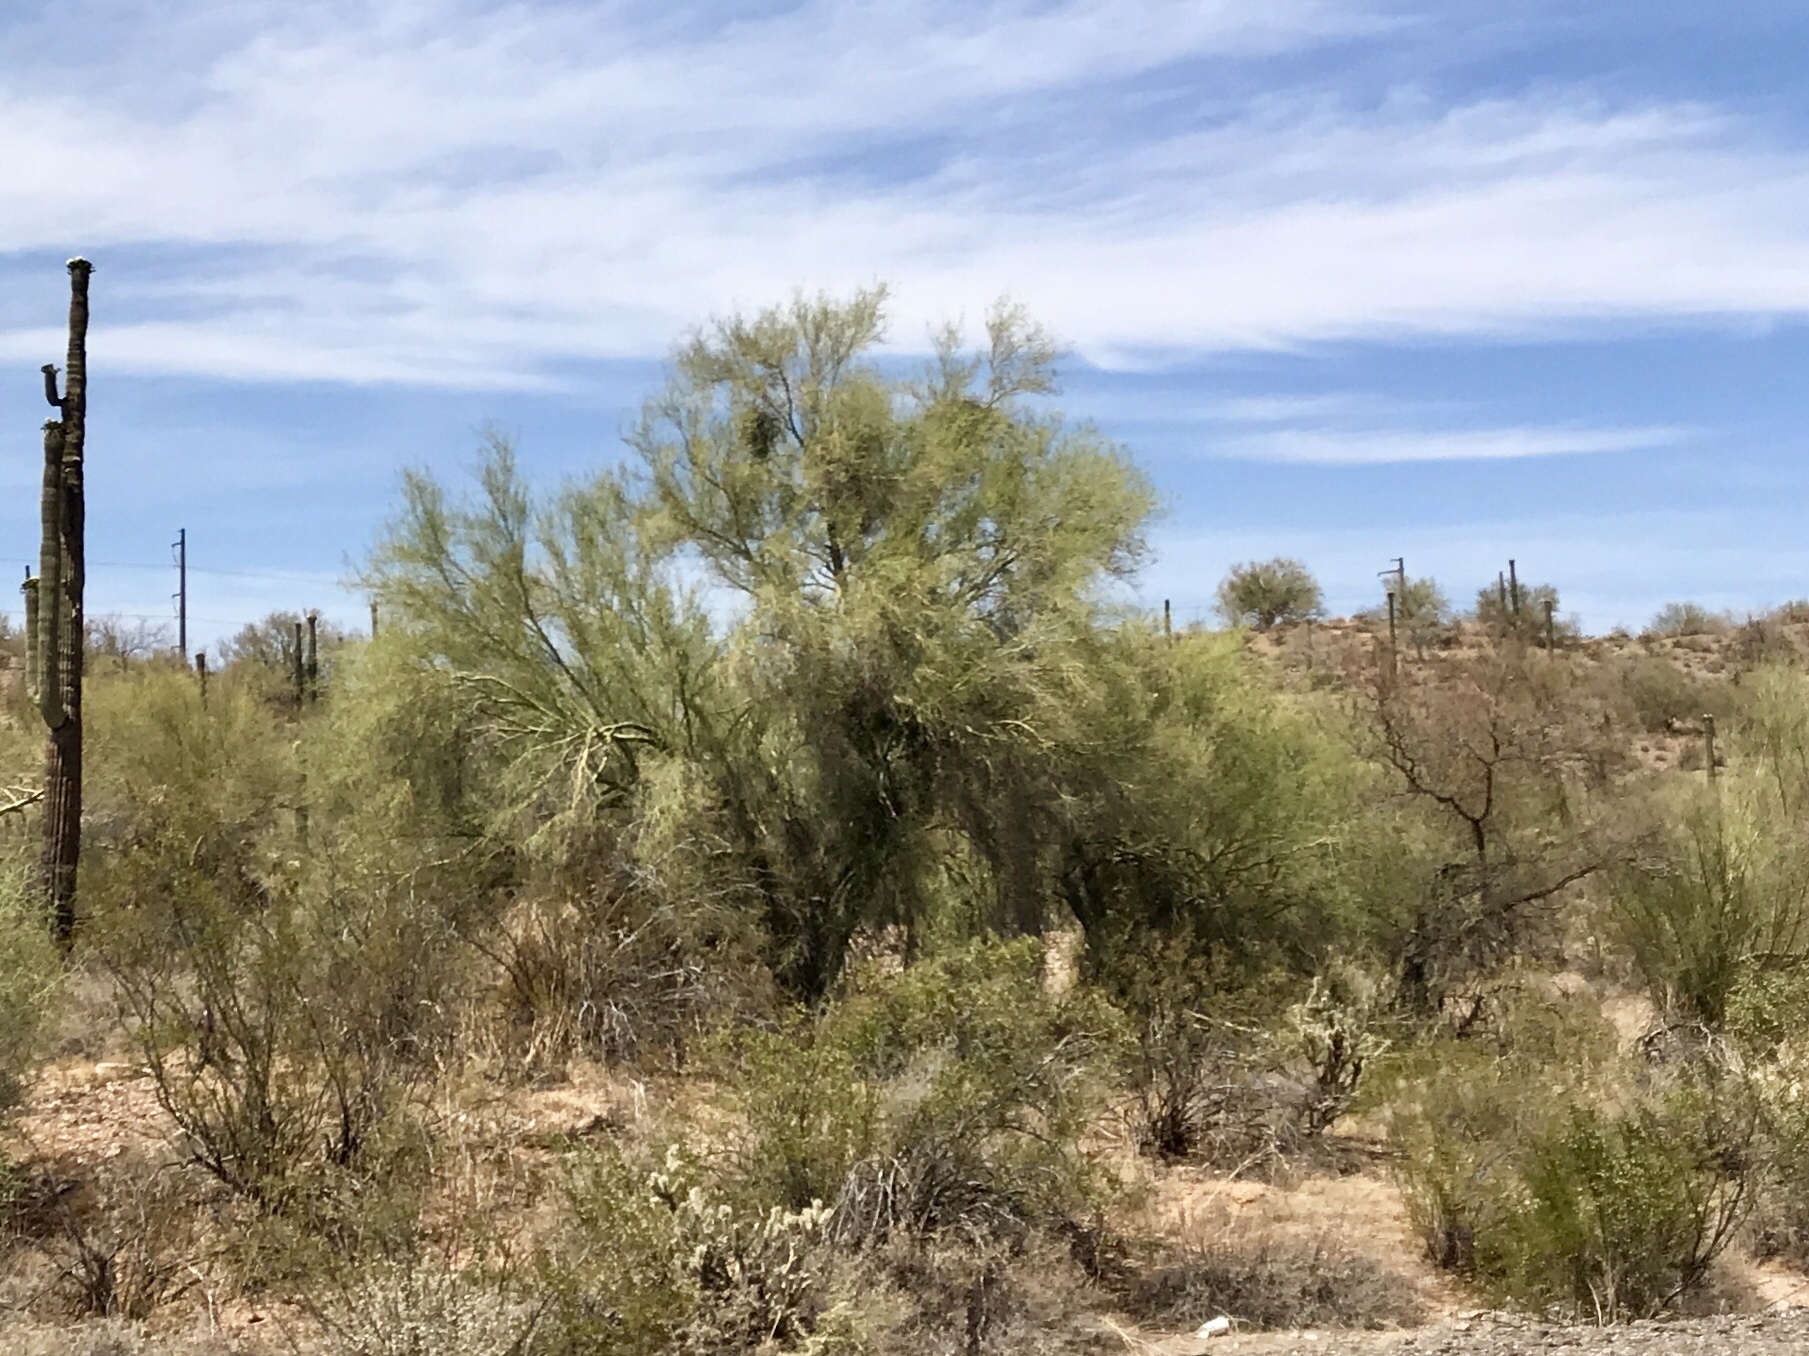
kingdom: Plantae
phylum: Tracheophyta
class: Magnoliopsida
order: Fabales
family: Fabaceae
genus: Parkinsonia
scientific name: Parkinsonia microphylla
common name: Yellow paloverde
